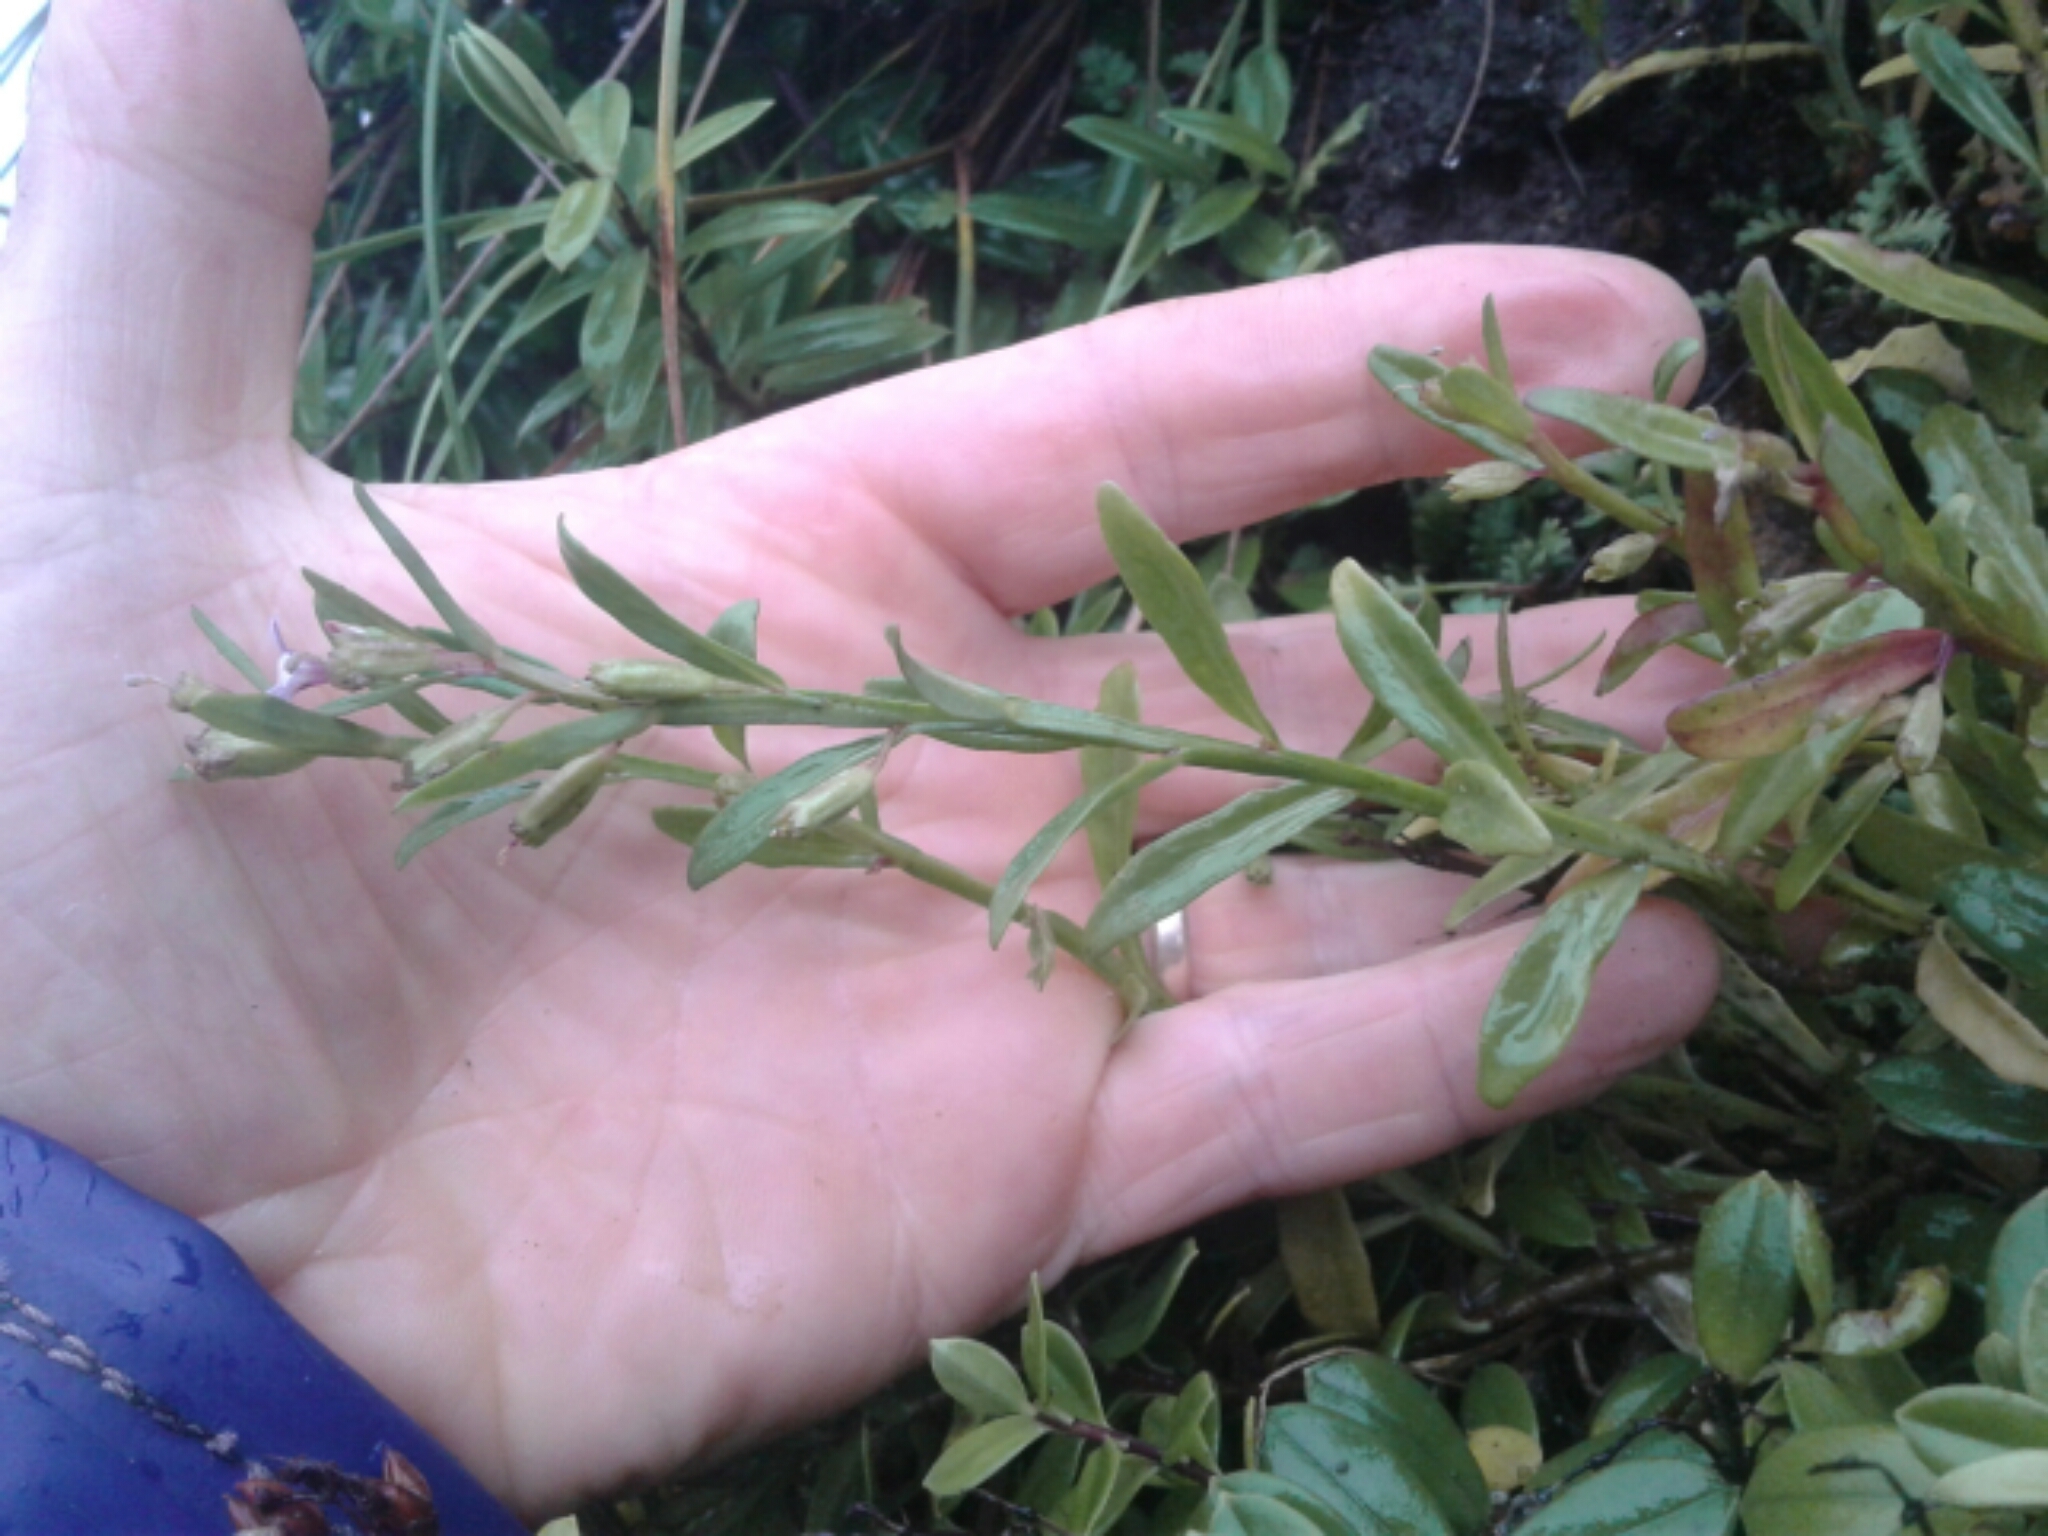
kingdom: Plantae
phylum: Tracheophyta
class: Magnoliopsida
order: Asterales
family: Campanulaceae
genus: Lobelia
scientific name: Lobelia anceps
